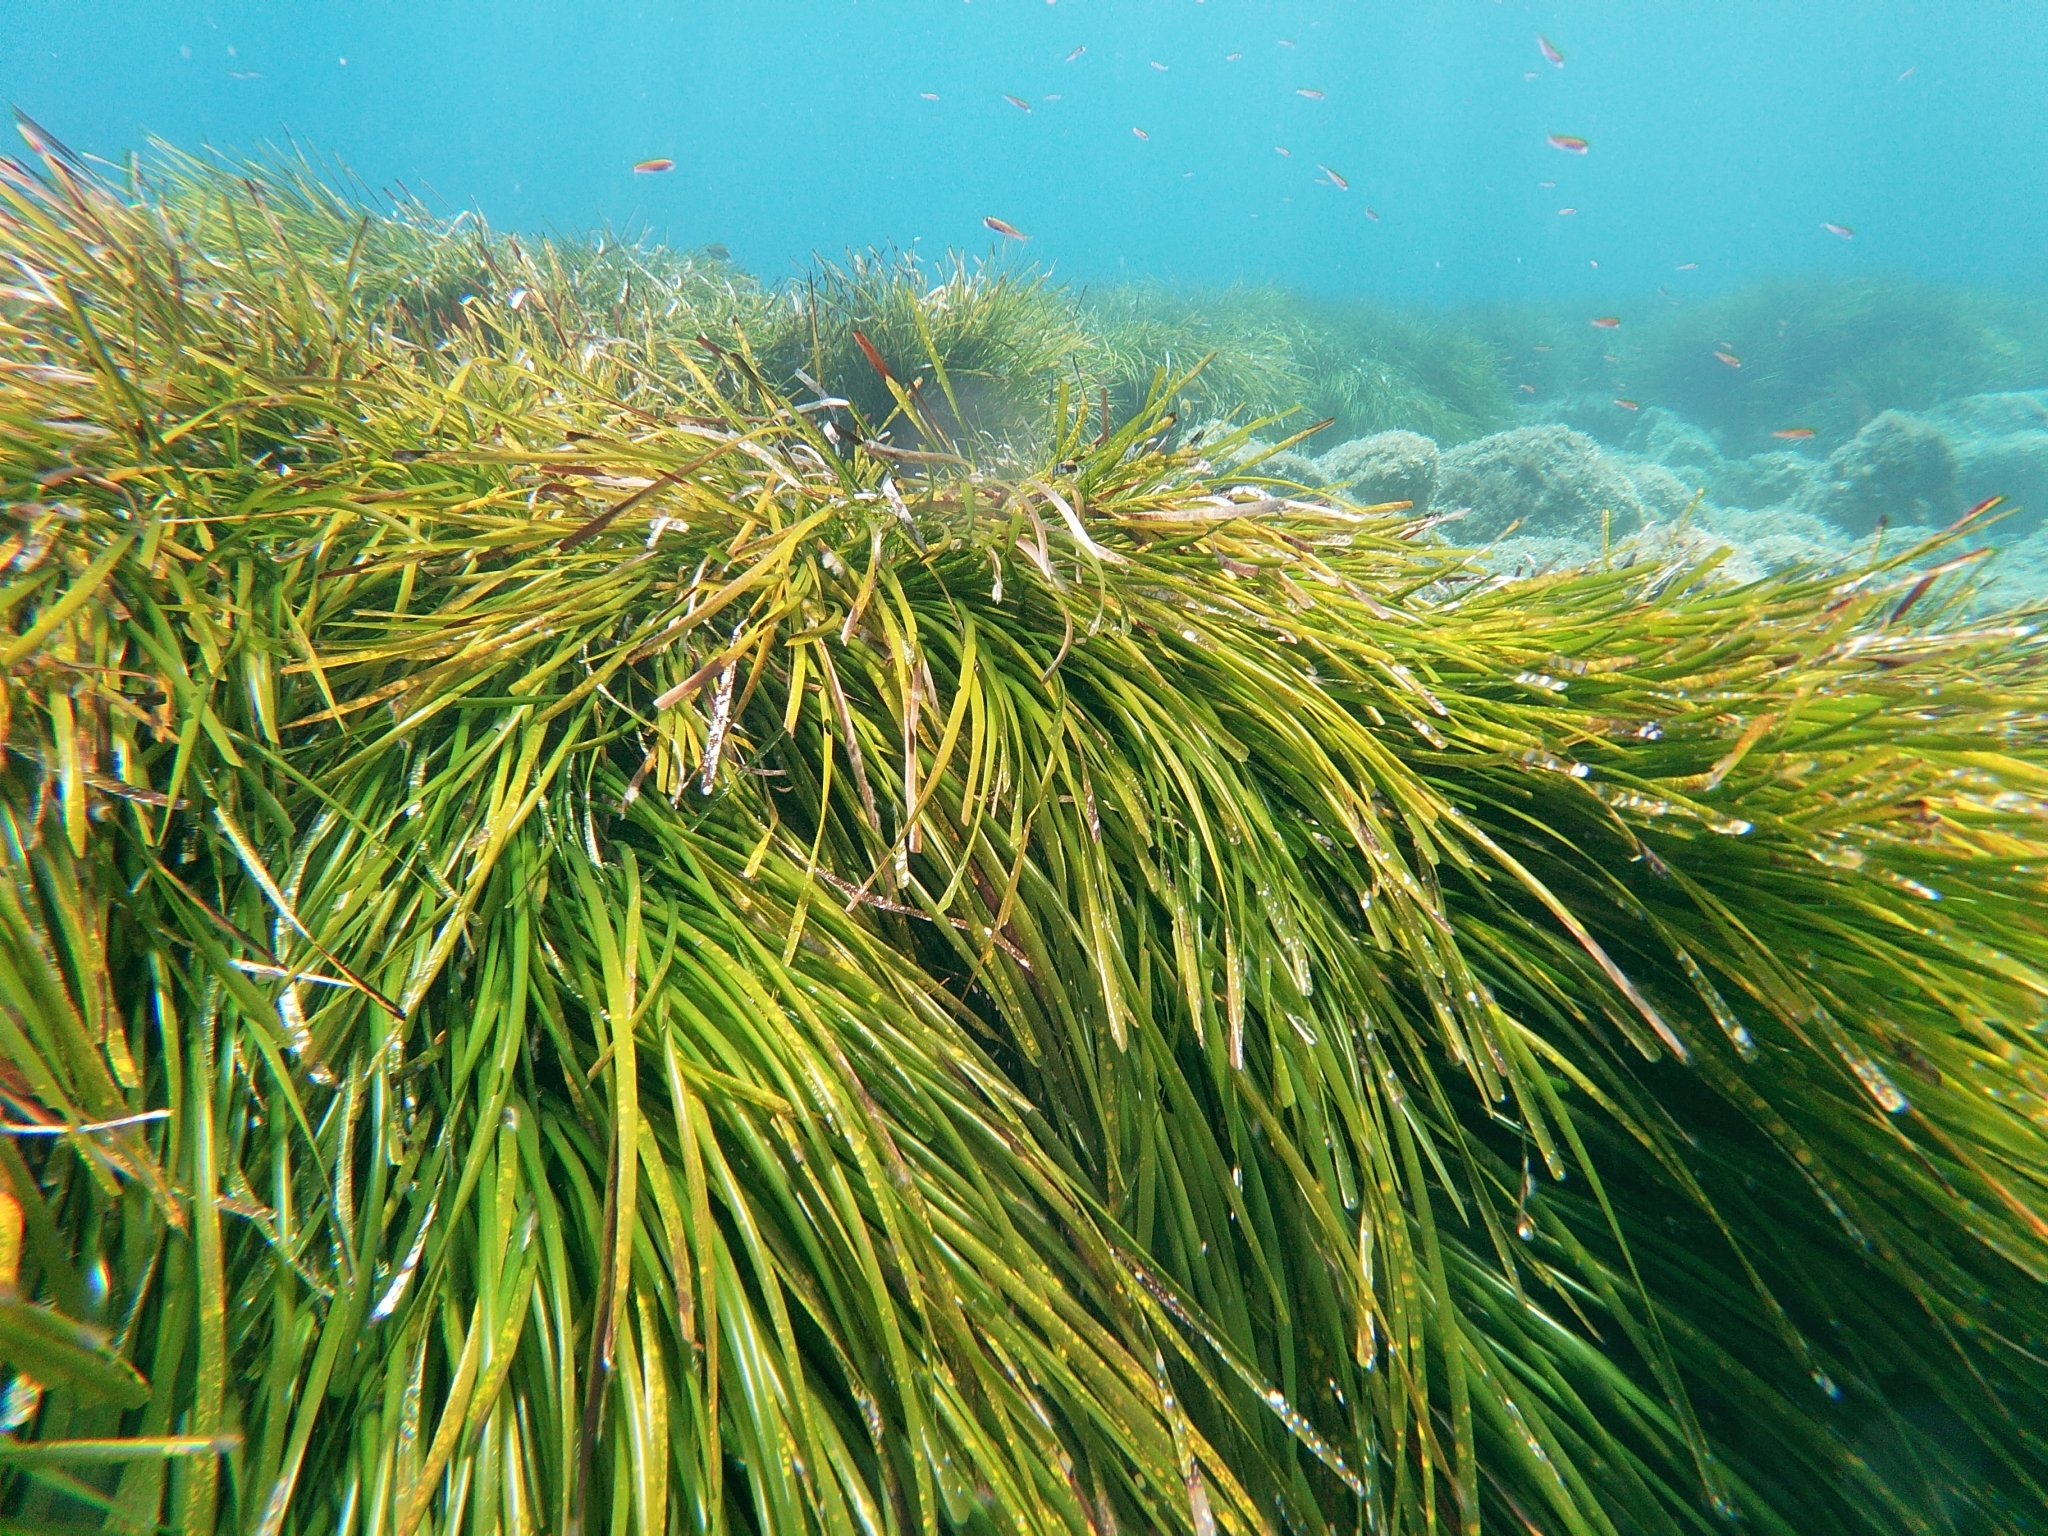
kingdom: Plantae
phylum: Tracheophyta
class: Liliopsida
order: Alismatales
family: Posidoniaceae
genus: Posidonia
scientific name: Posidonia oceanica
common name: Mediterranean tapeweed
